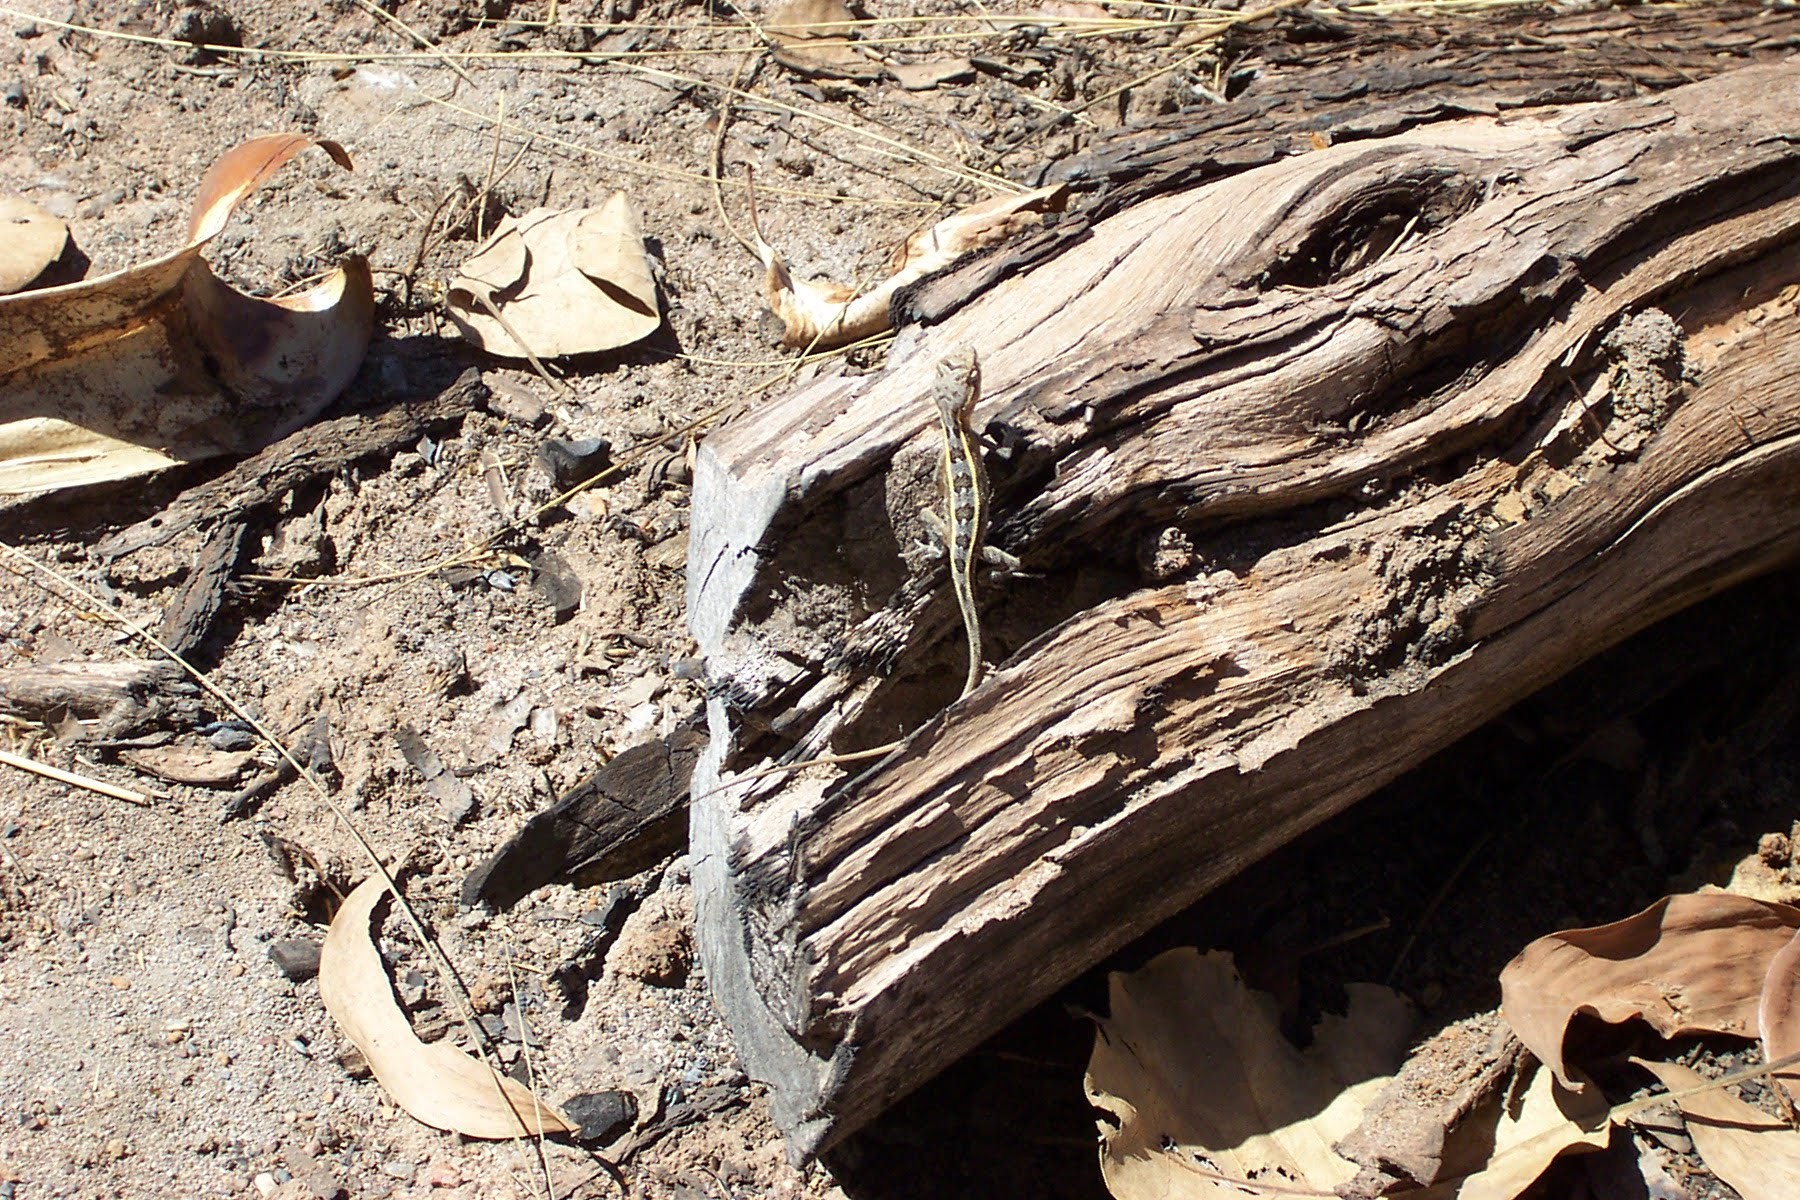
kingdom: Animalia
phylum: Chordata
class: Squamata
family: Agamidae
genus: Diporiphora
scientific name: Diporiphora bilineata
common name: Northern two-line dragon
